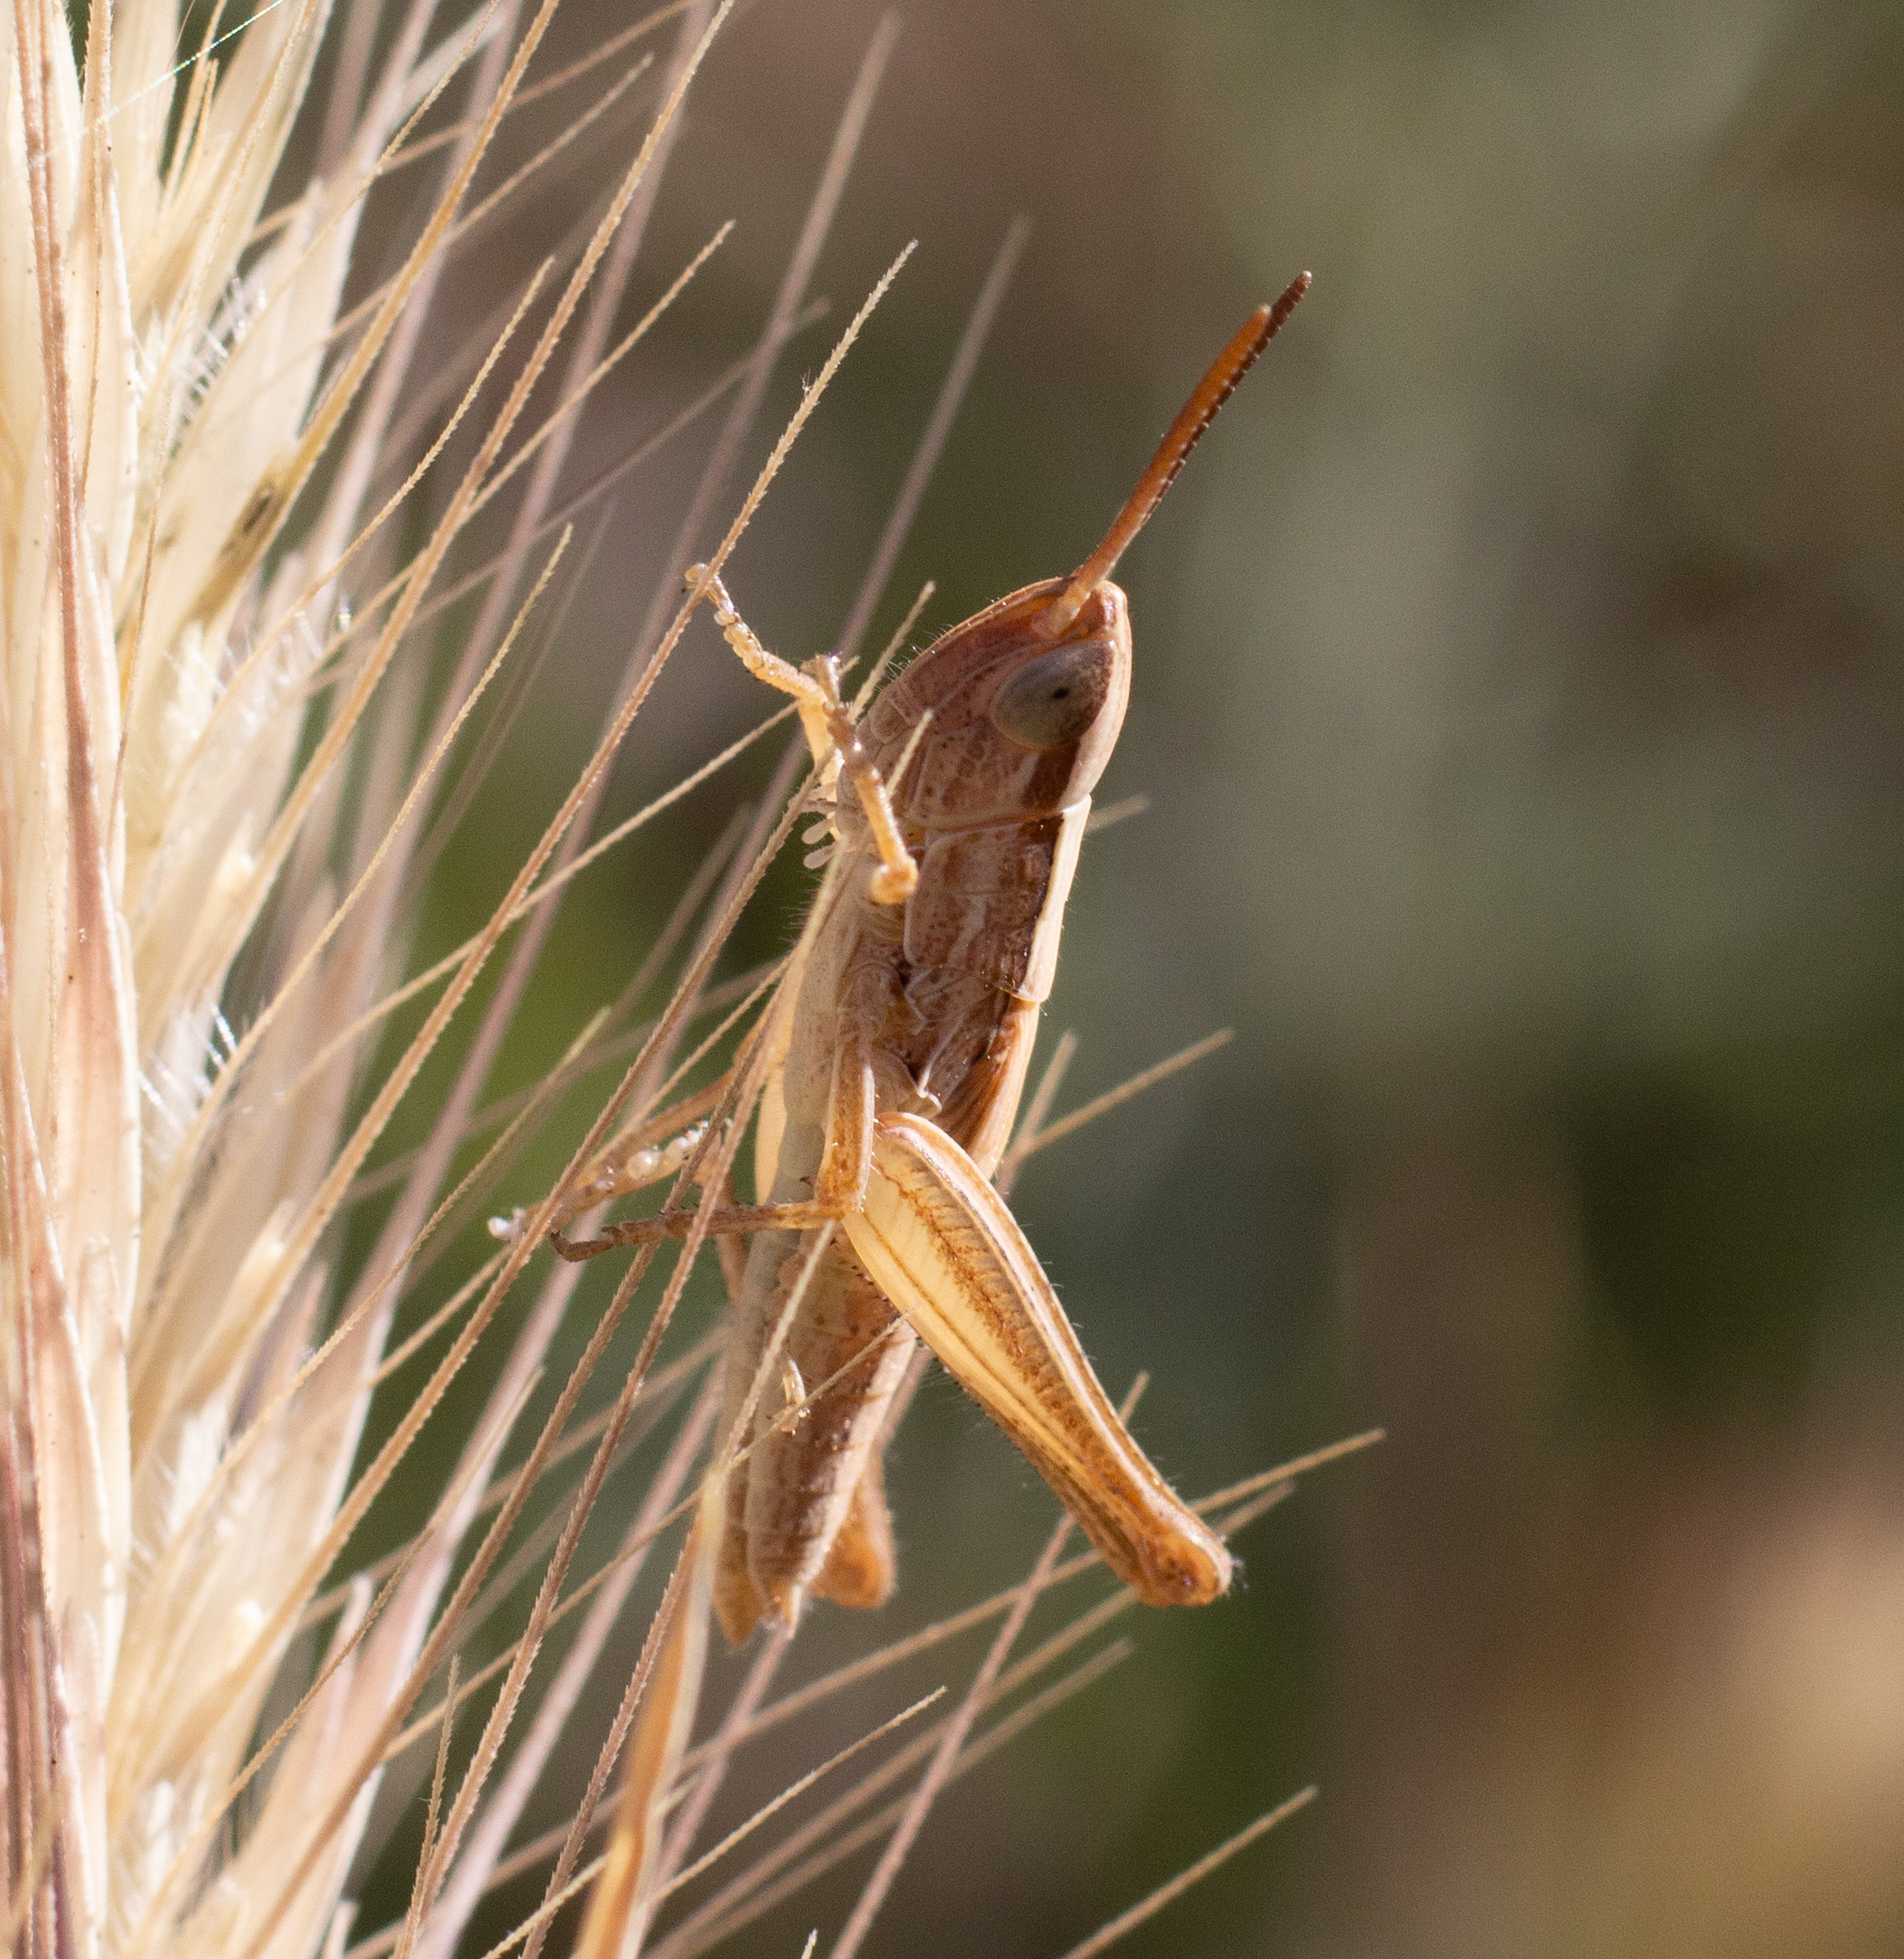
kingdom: Animalia
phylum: Arthropoda
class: Insecta
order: Orthoptera
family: Acrididae
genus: Euchorthippus
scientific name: Euchorthippus elegantulus
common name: Elegant straw grasshopper
